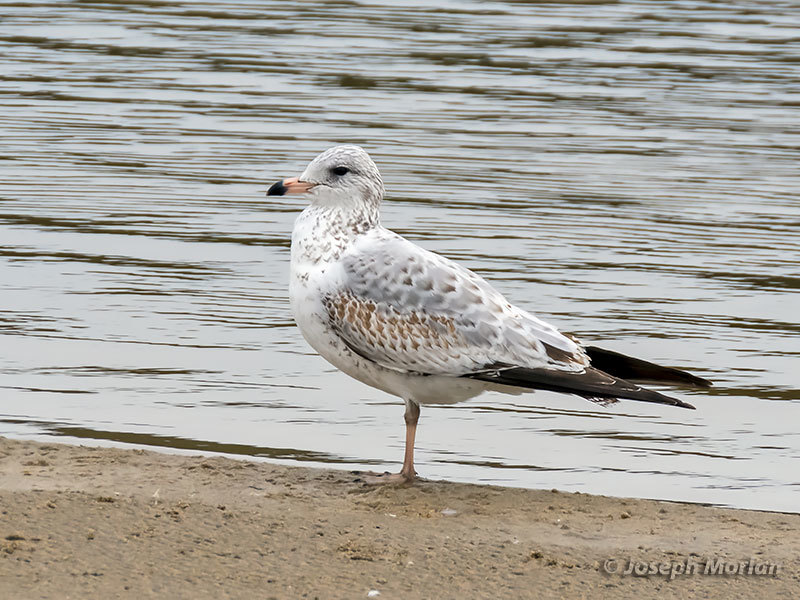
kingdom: Animalia
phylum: Chordata
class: Aves
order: Charadriiformes
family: Laridae
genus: Larus
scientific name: Larus delawarensis
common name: Ring-billed gull
